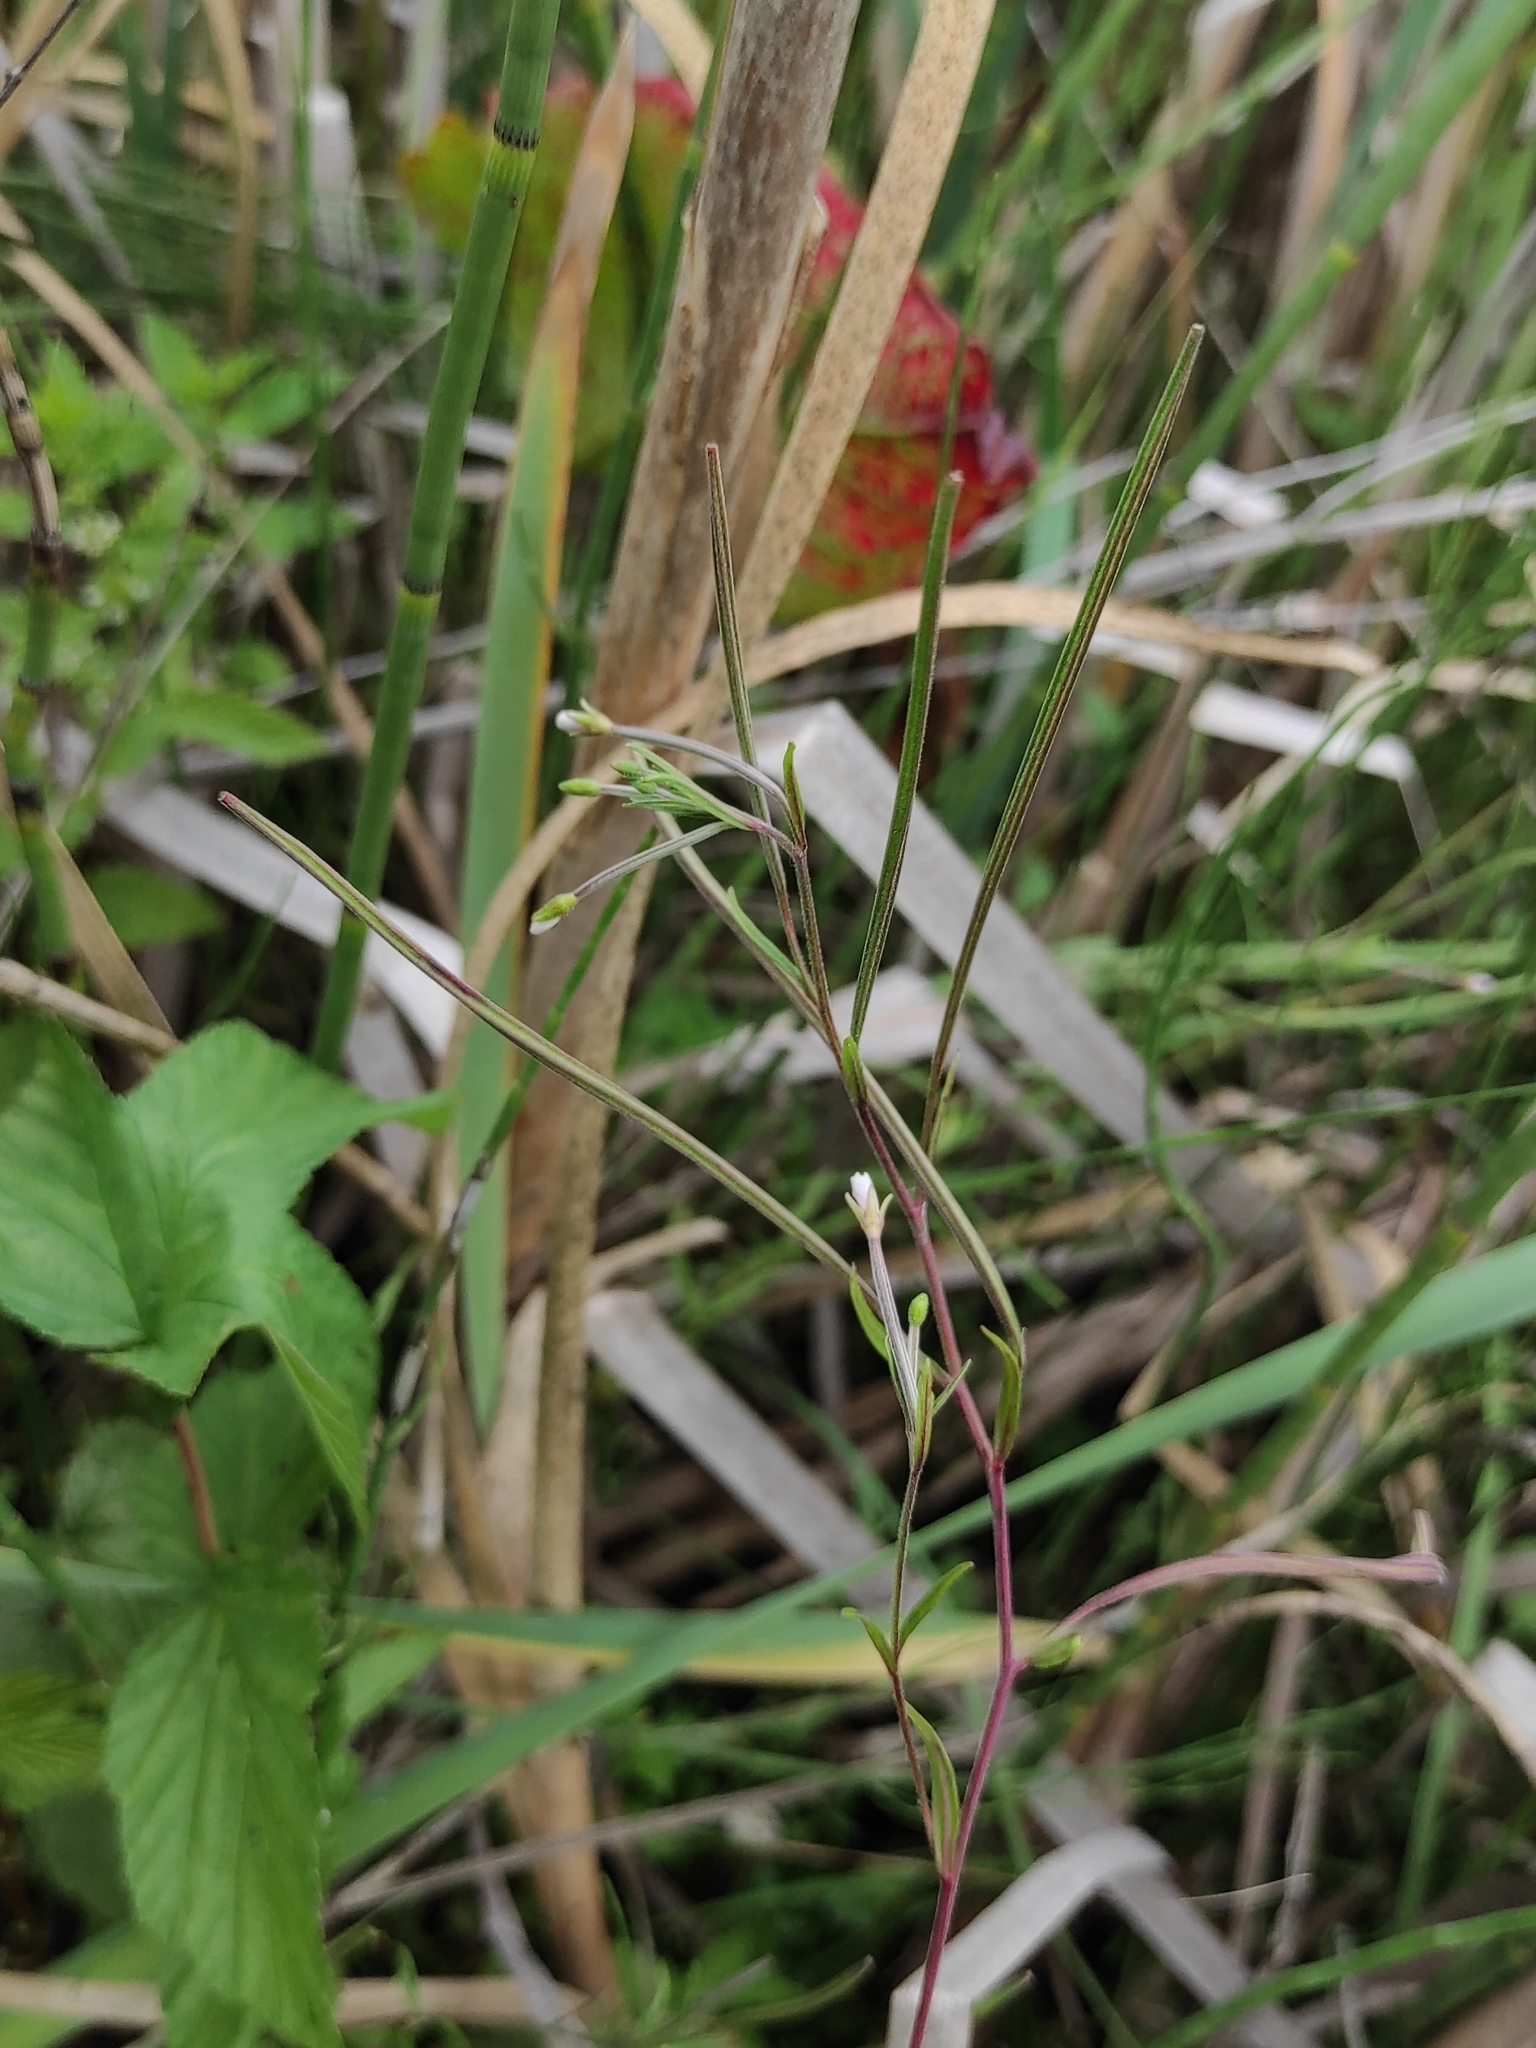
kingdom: Plantae
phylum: Tracheophyta
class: Magnoliopsida
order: Myrtales
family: Onagraceae
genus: Epilobium
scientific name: Epilobium palustre
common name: Marsh willowherb
